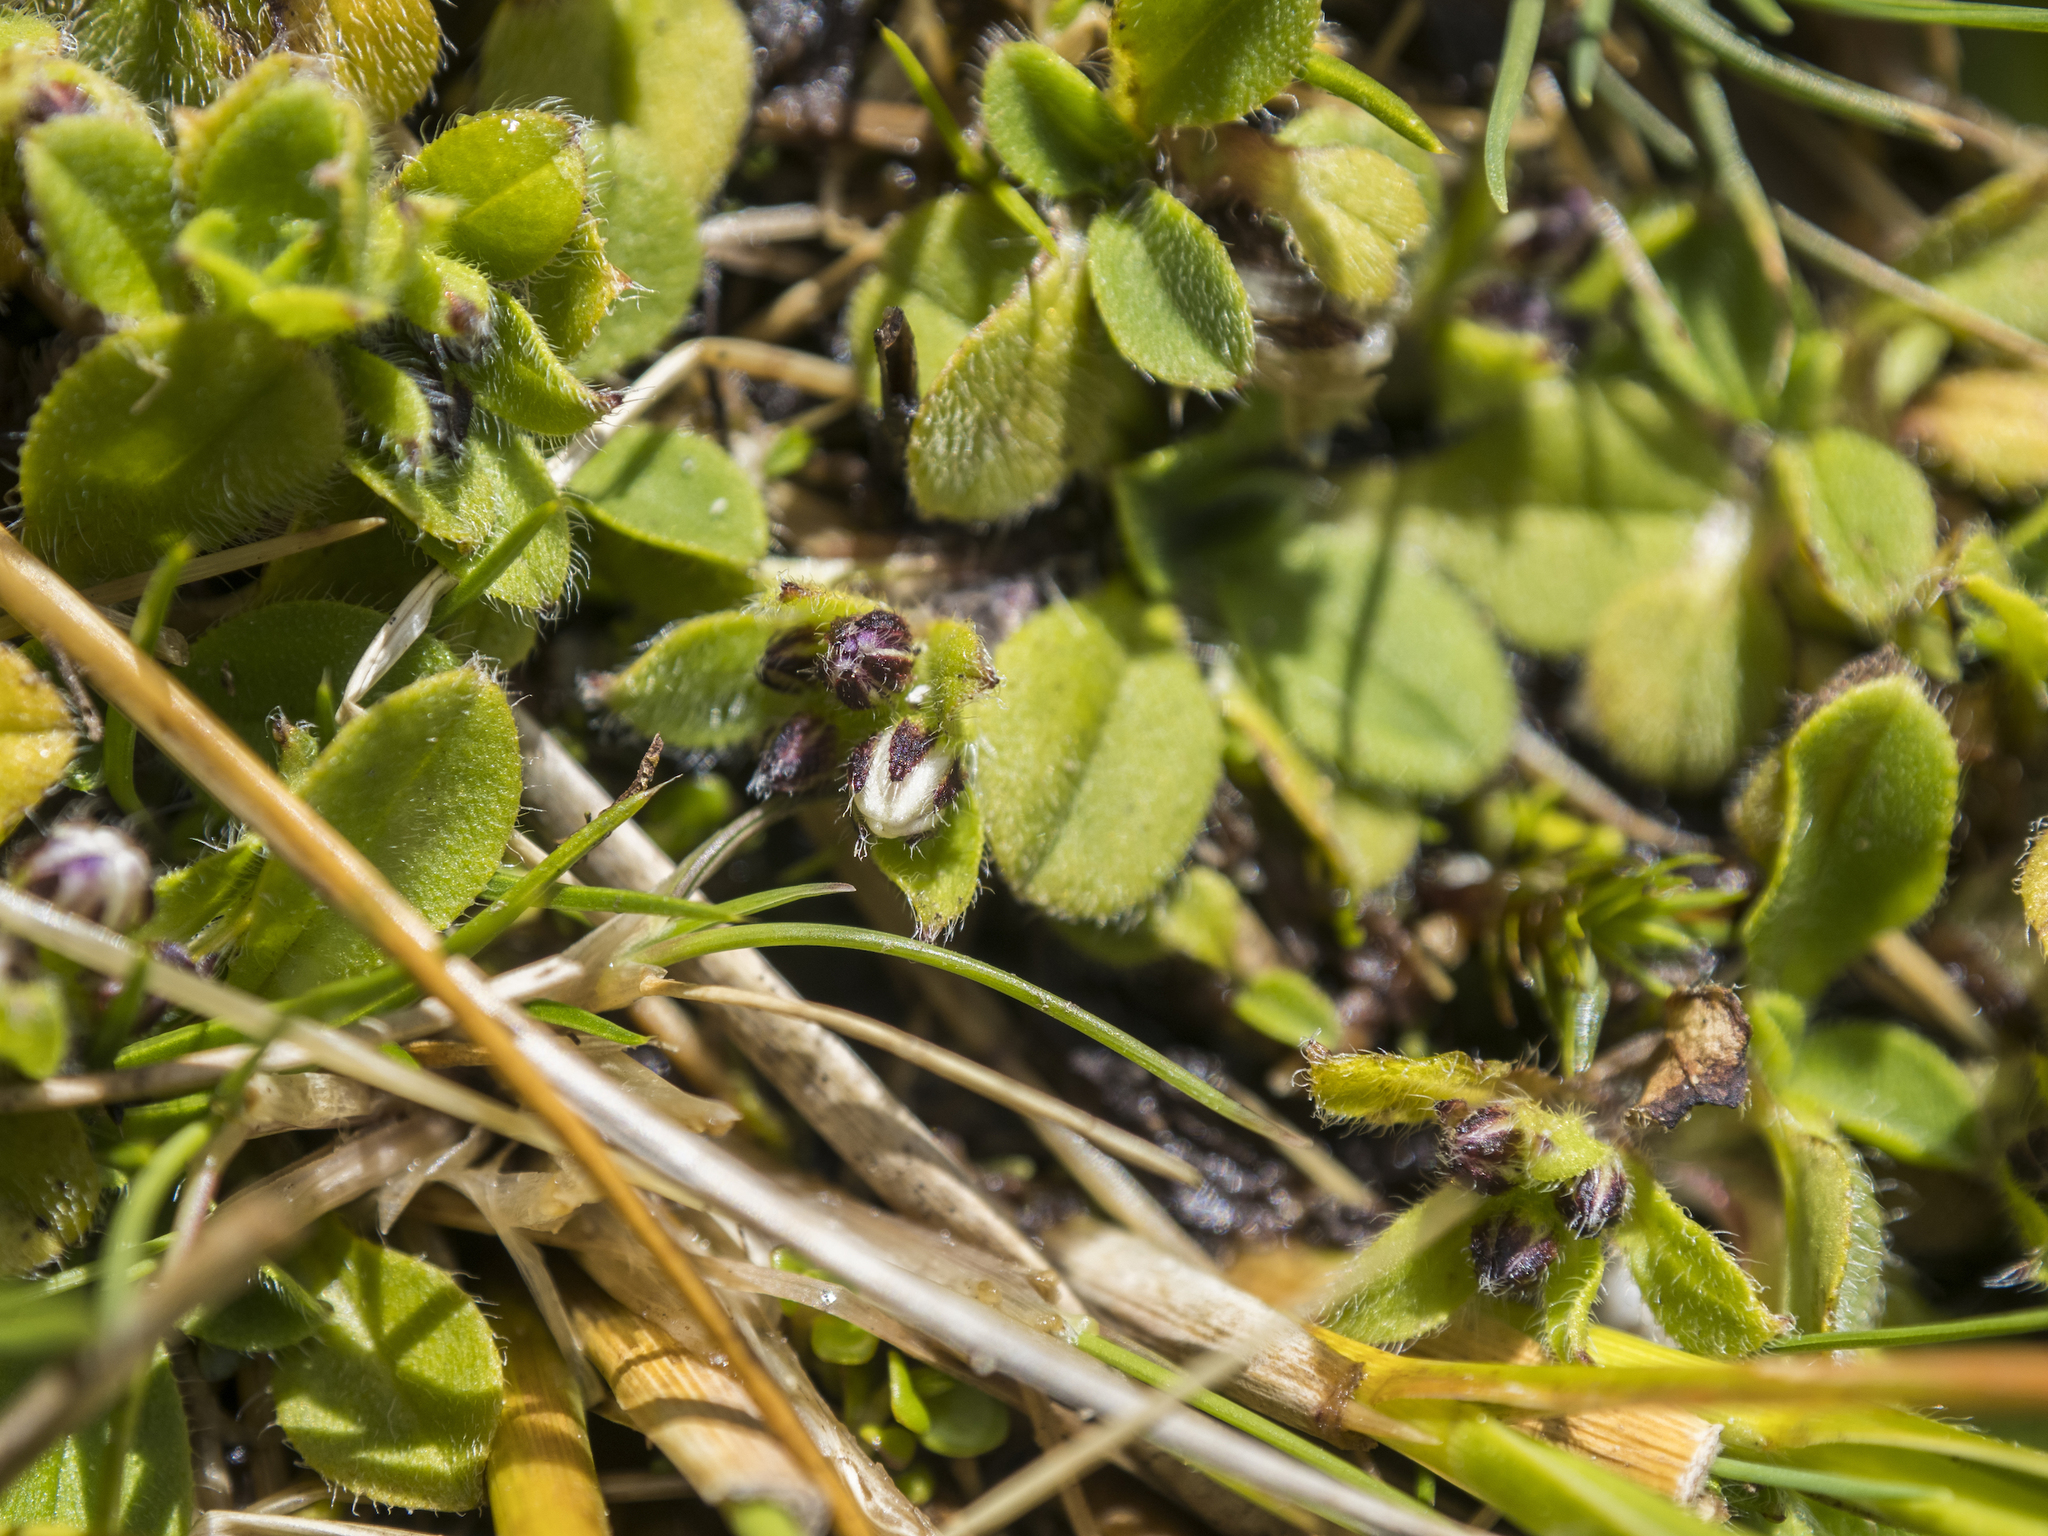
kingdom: Plantae
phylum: Tracheophyta
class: Magnoliopsida
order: Boraginales
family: Boraginaceae
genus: Myosotis
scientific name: Myosotis lyallii
